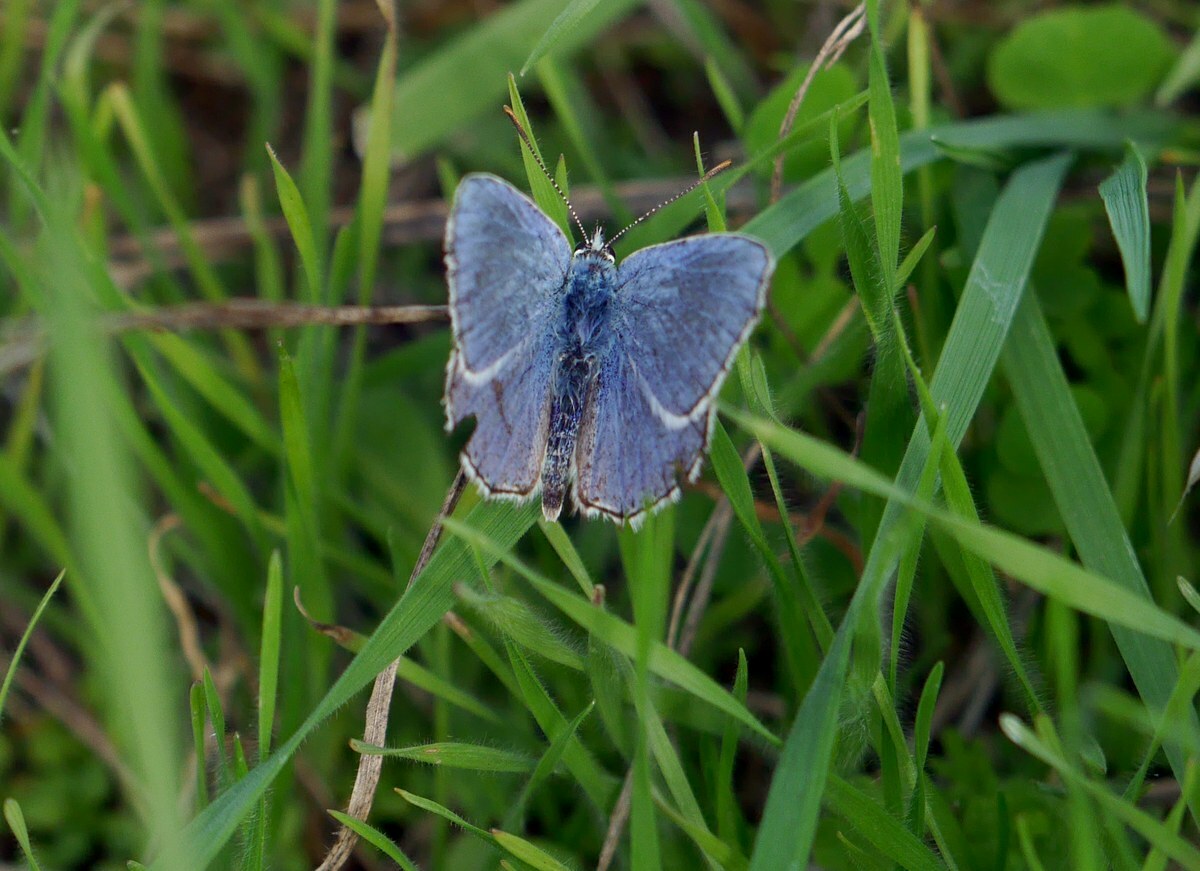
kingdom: Animalia
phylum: Arthropoda
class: Insecta
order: Lepidoptera
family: Lycaenidae
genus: Lysandra
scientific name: Lysandra bellargus
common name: Adonis blue
